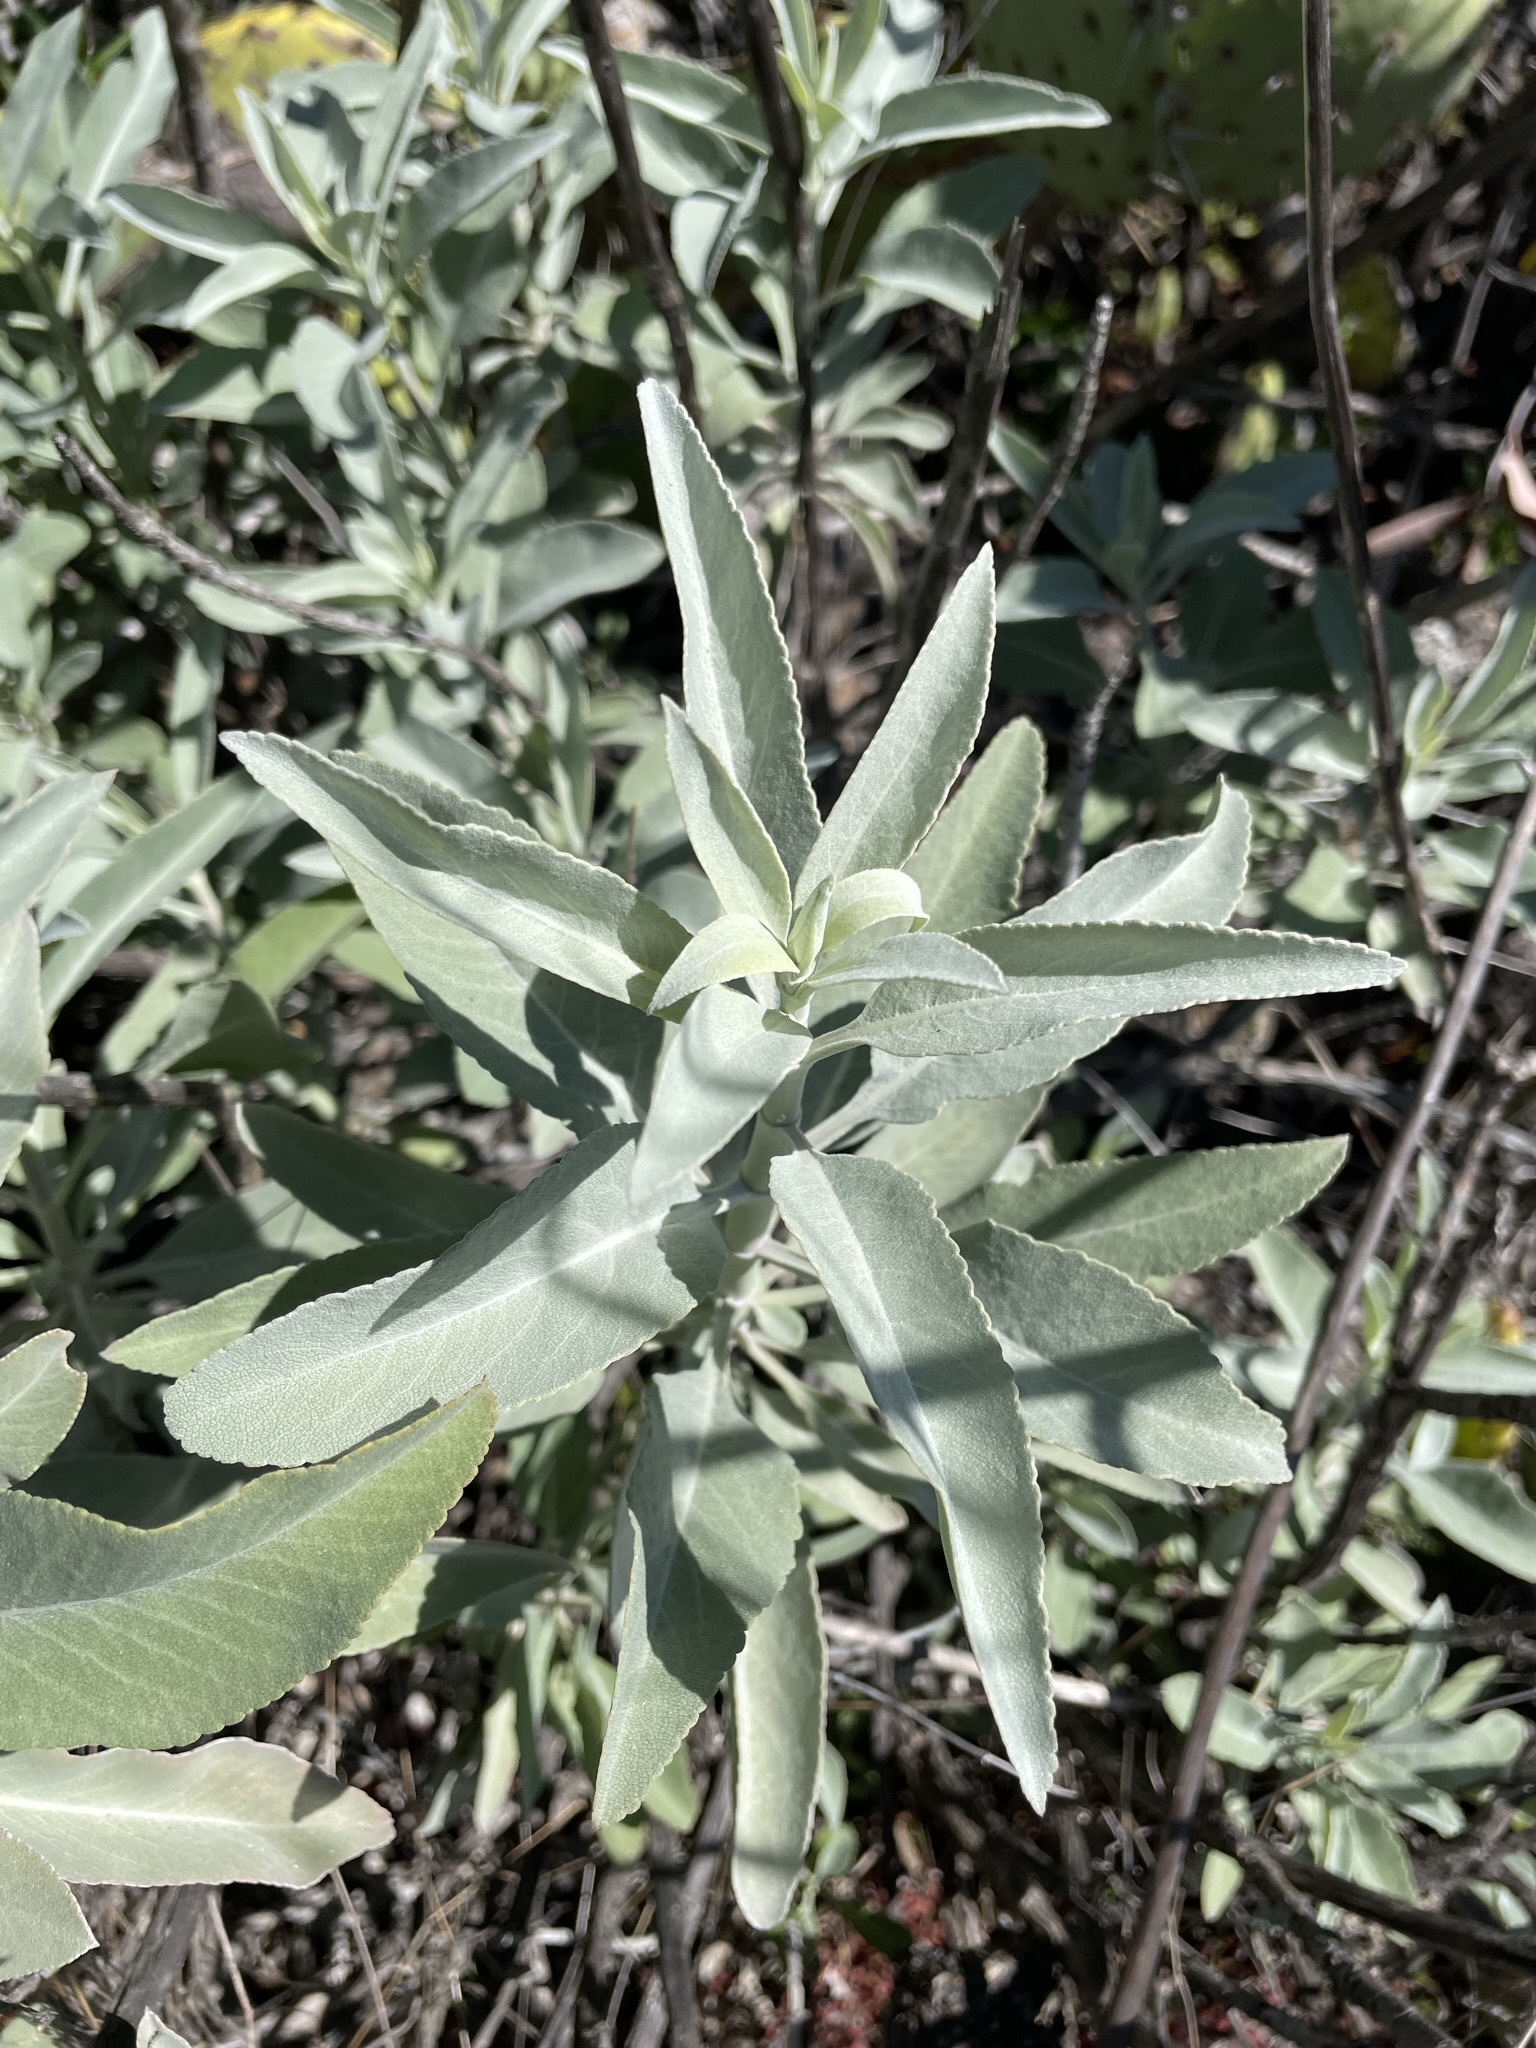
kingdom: Plantae
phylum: Tracheophyta
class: Magnoliopsida
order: Lamiales
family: Lamiaceae
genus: Salvia
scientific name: Salvia apiana
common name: White sage
